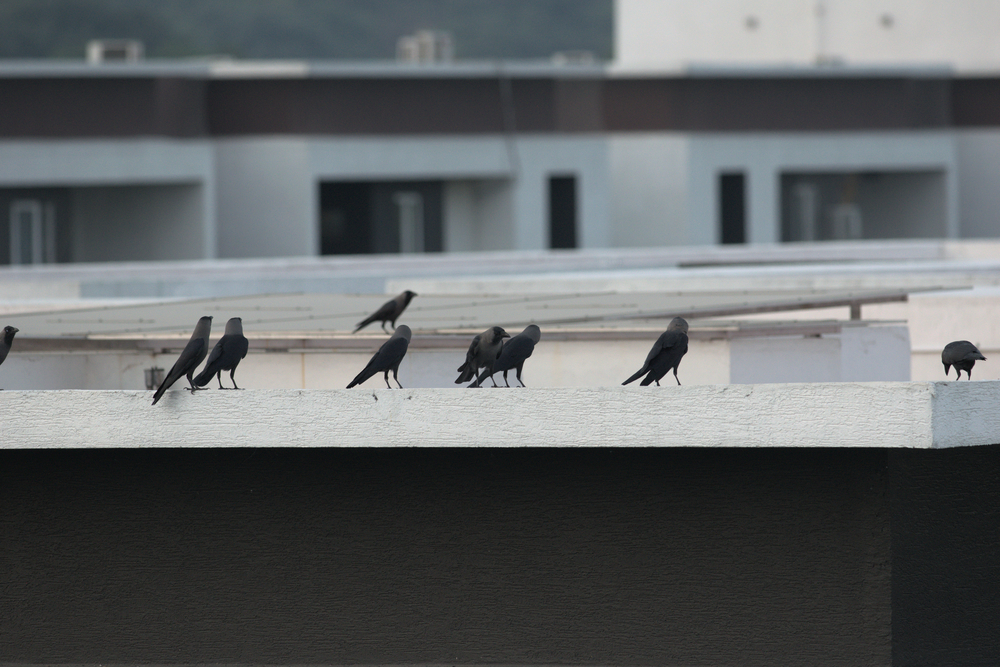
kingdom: Animalia
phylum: Chordata
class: Aves
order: Passeriformes
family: Corvidae
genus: Corvus
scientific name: Corvus splendens
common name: House crow
